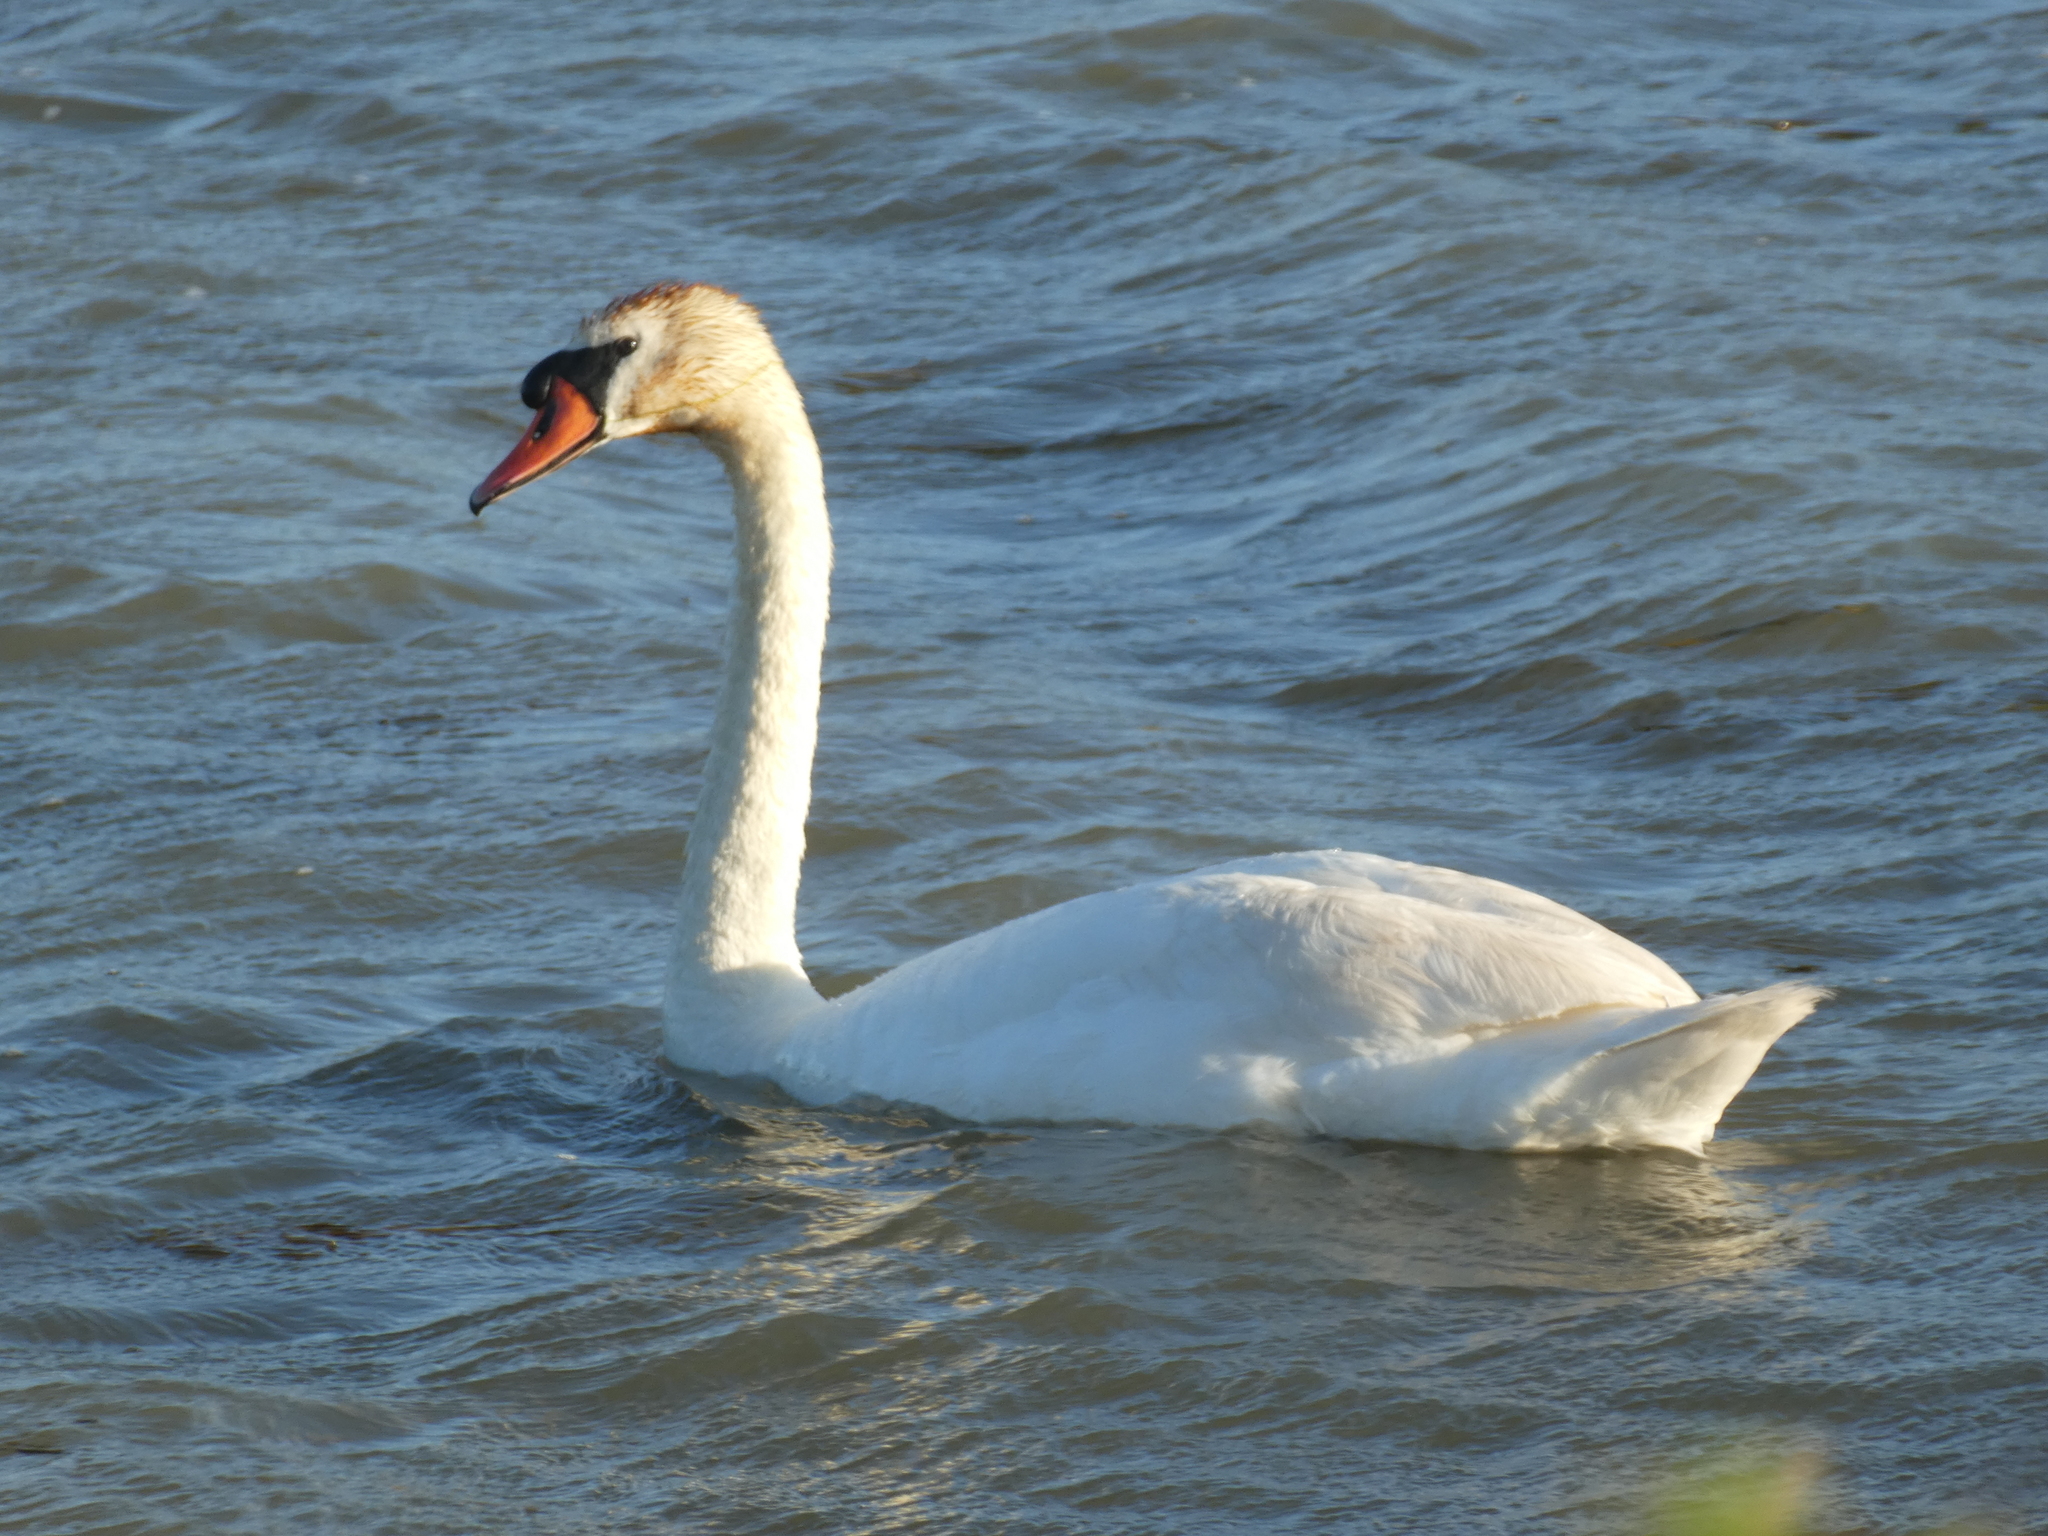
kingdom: Animalia
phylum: Chordata
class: Aves
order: Anseriformes
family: Anatidae
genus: Cygnus
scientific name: Cygnus olor
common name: Mute swan
